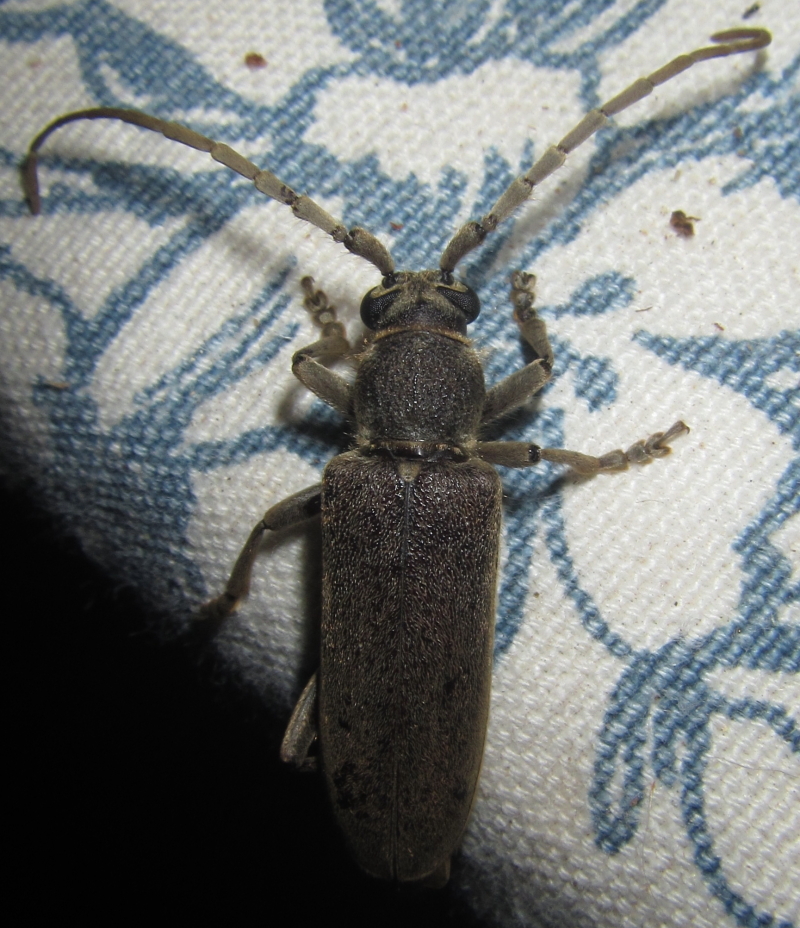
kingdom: Animalia
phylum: Arthropoda
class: Insecta
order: Coleoptera
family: Cerambycidae
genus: Africophanes
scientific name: Africophanes amicus
